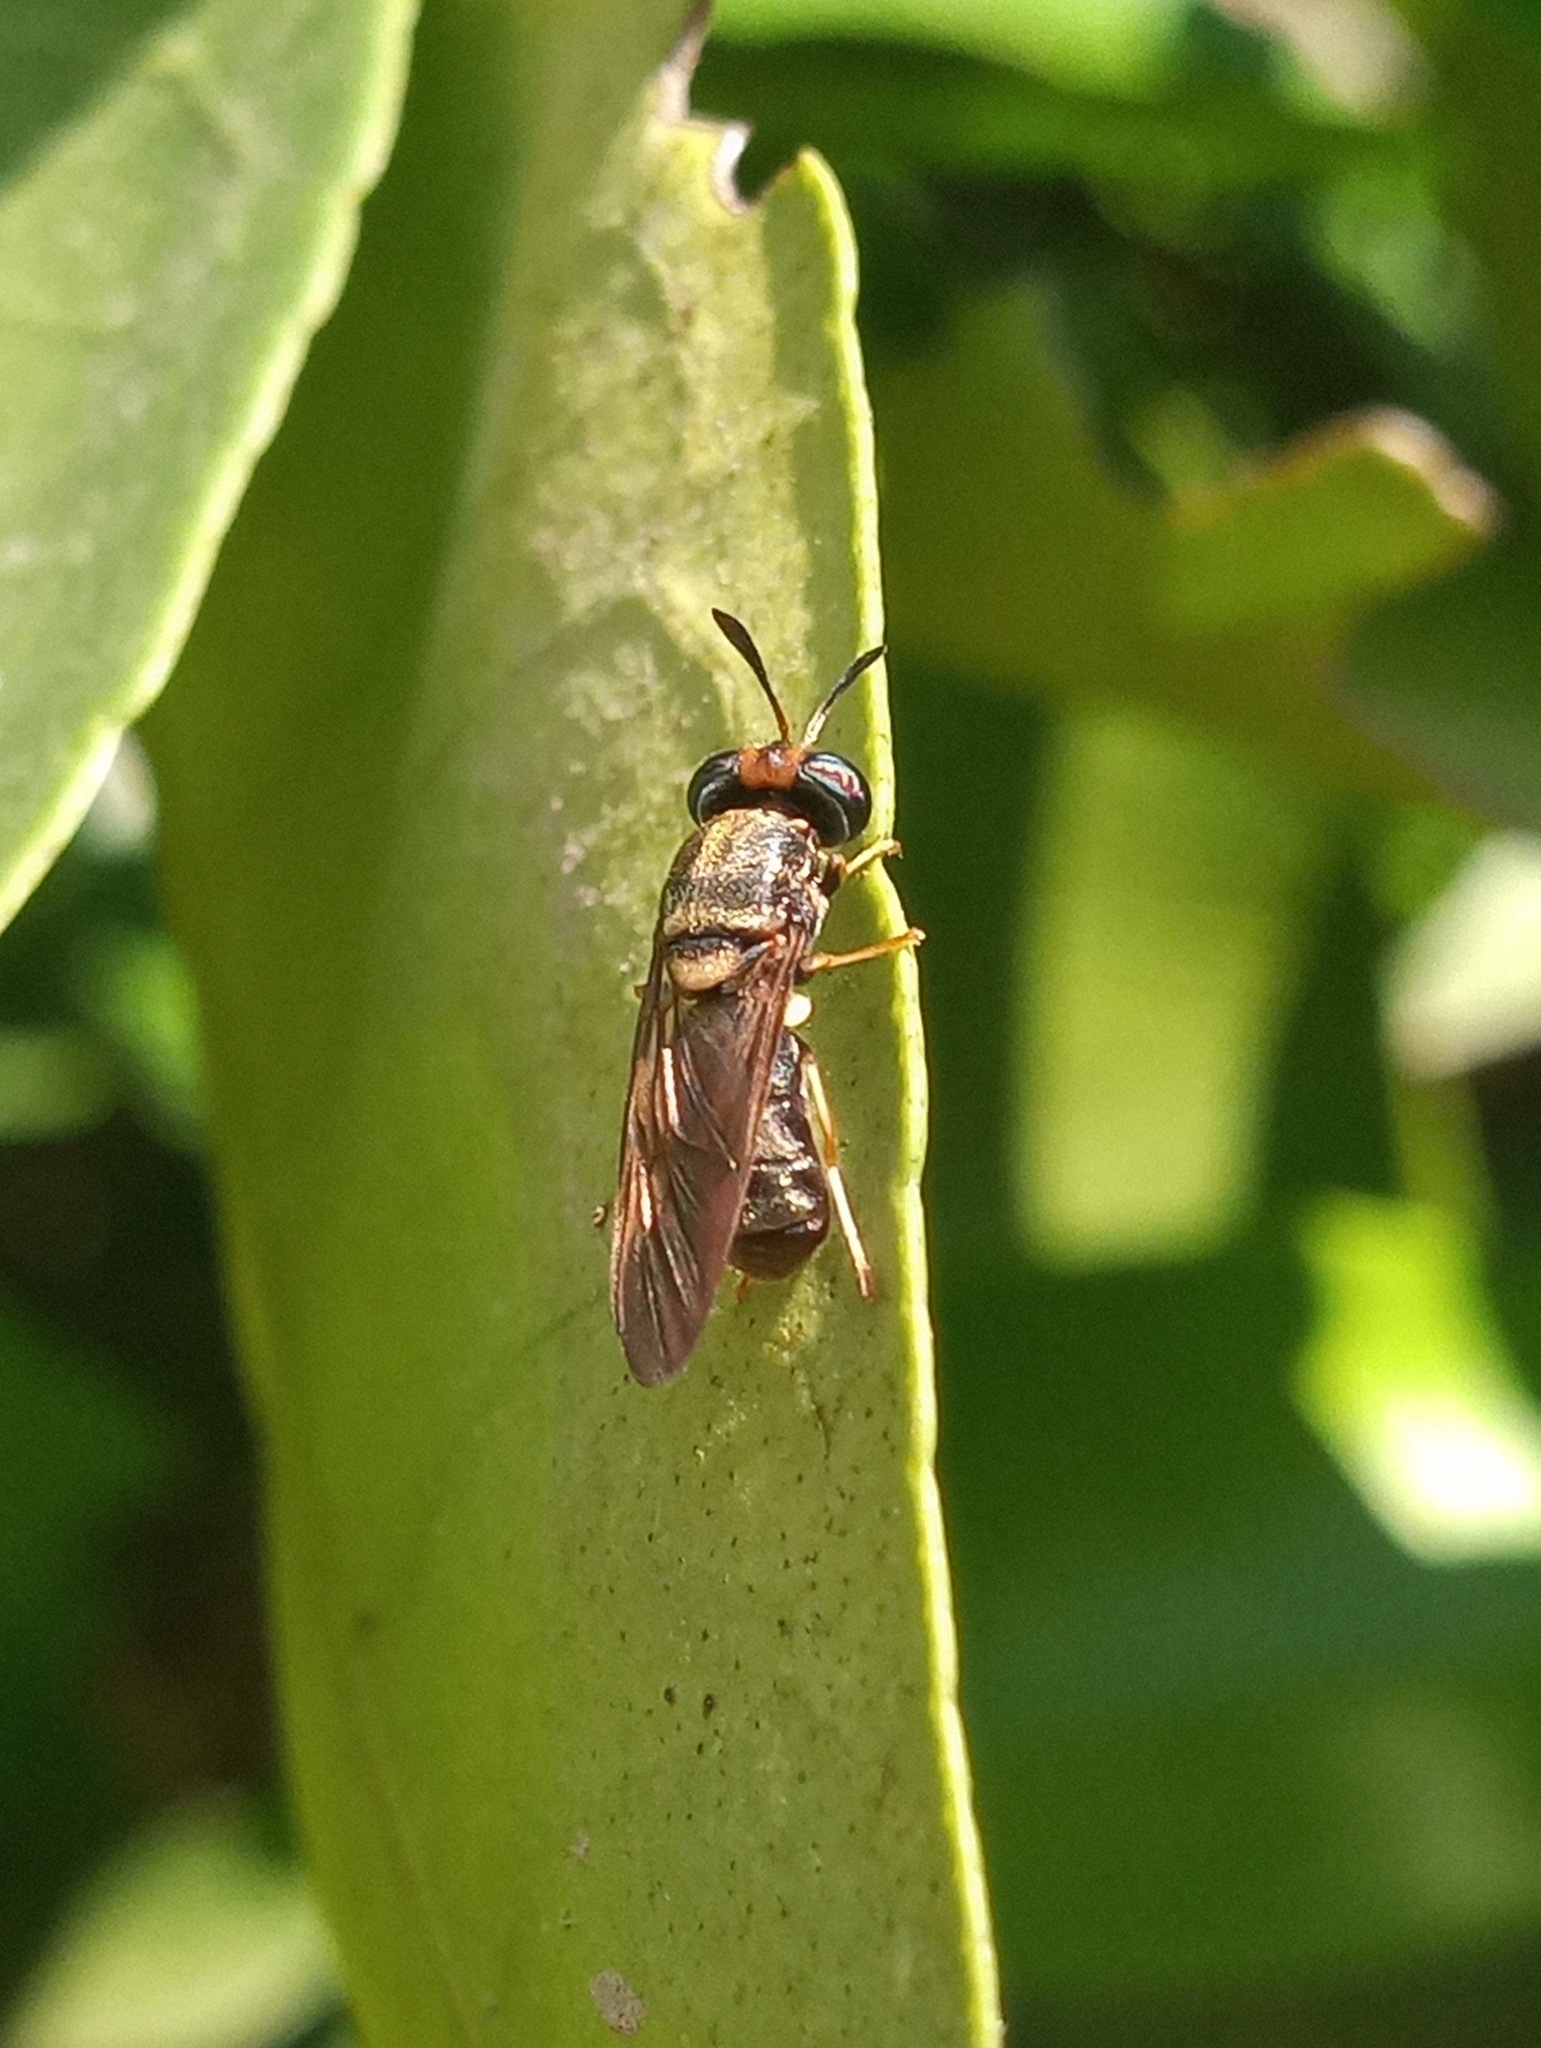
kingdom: Animalia
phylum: Arthropoda
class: Insecta
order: Diptera
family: Stratiomyidae
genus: Hermetia
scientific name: Hermetia chrysopila
